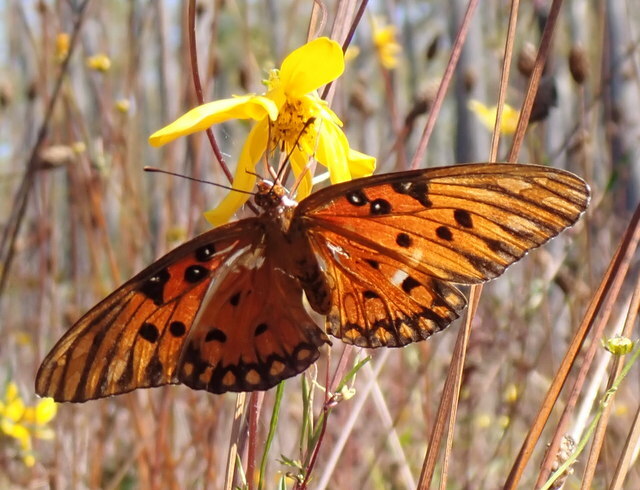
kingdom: Animalia
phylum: Arthropoda
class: Insecta
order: Lepidoptera
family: Nymphalidae
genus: Dione
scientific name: Dione vanillae
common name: Gulf fritillary
